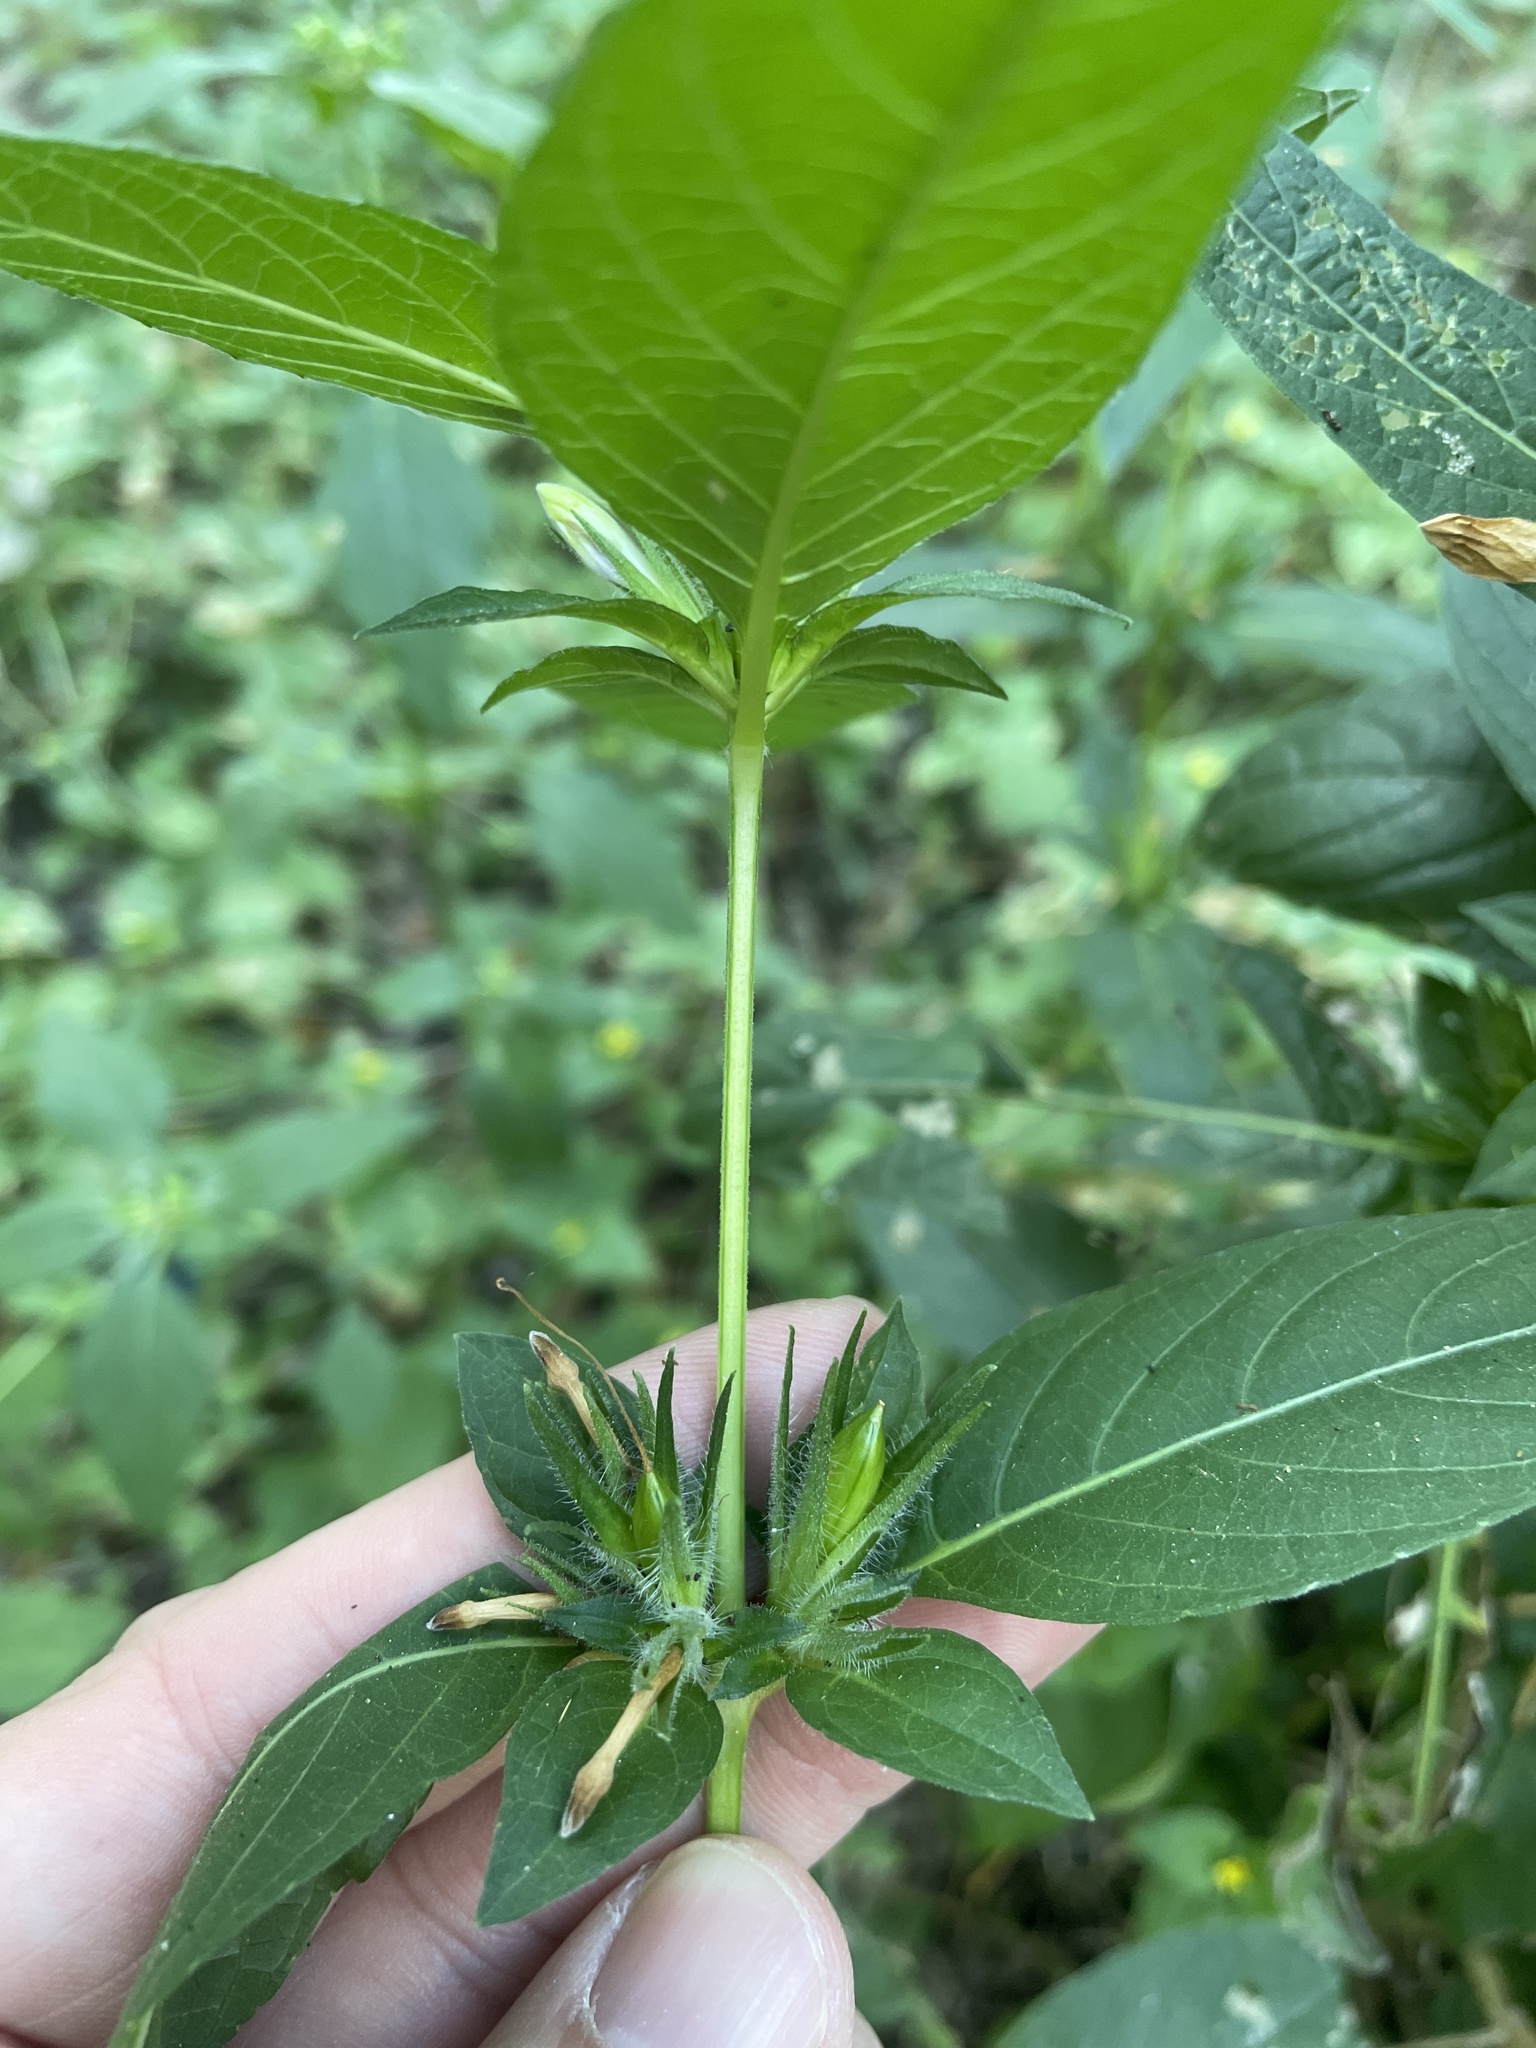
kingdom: Plantae
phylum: Tracheophyta
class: Magnoliopsida
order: Lamiales
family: Acanthaceae
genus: Ruellia
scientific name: Ruellia strepens
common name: Limestone wild petunia
